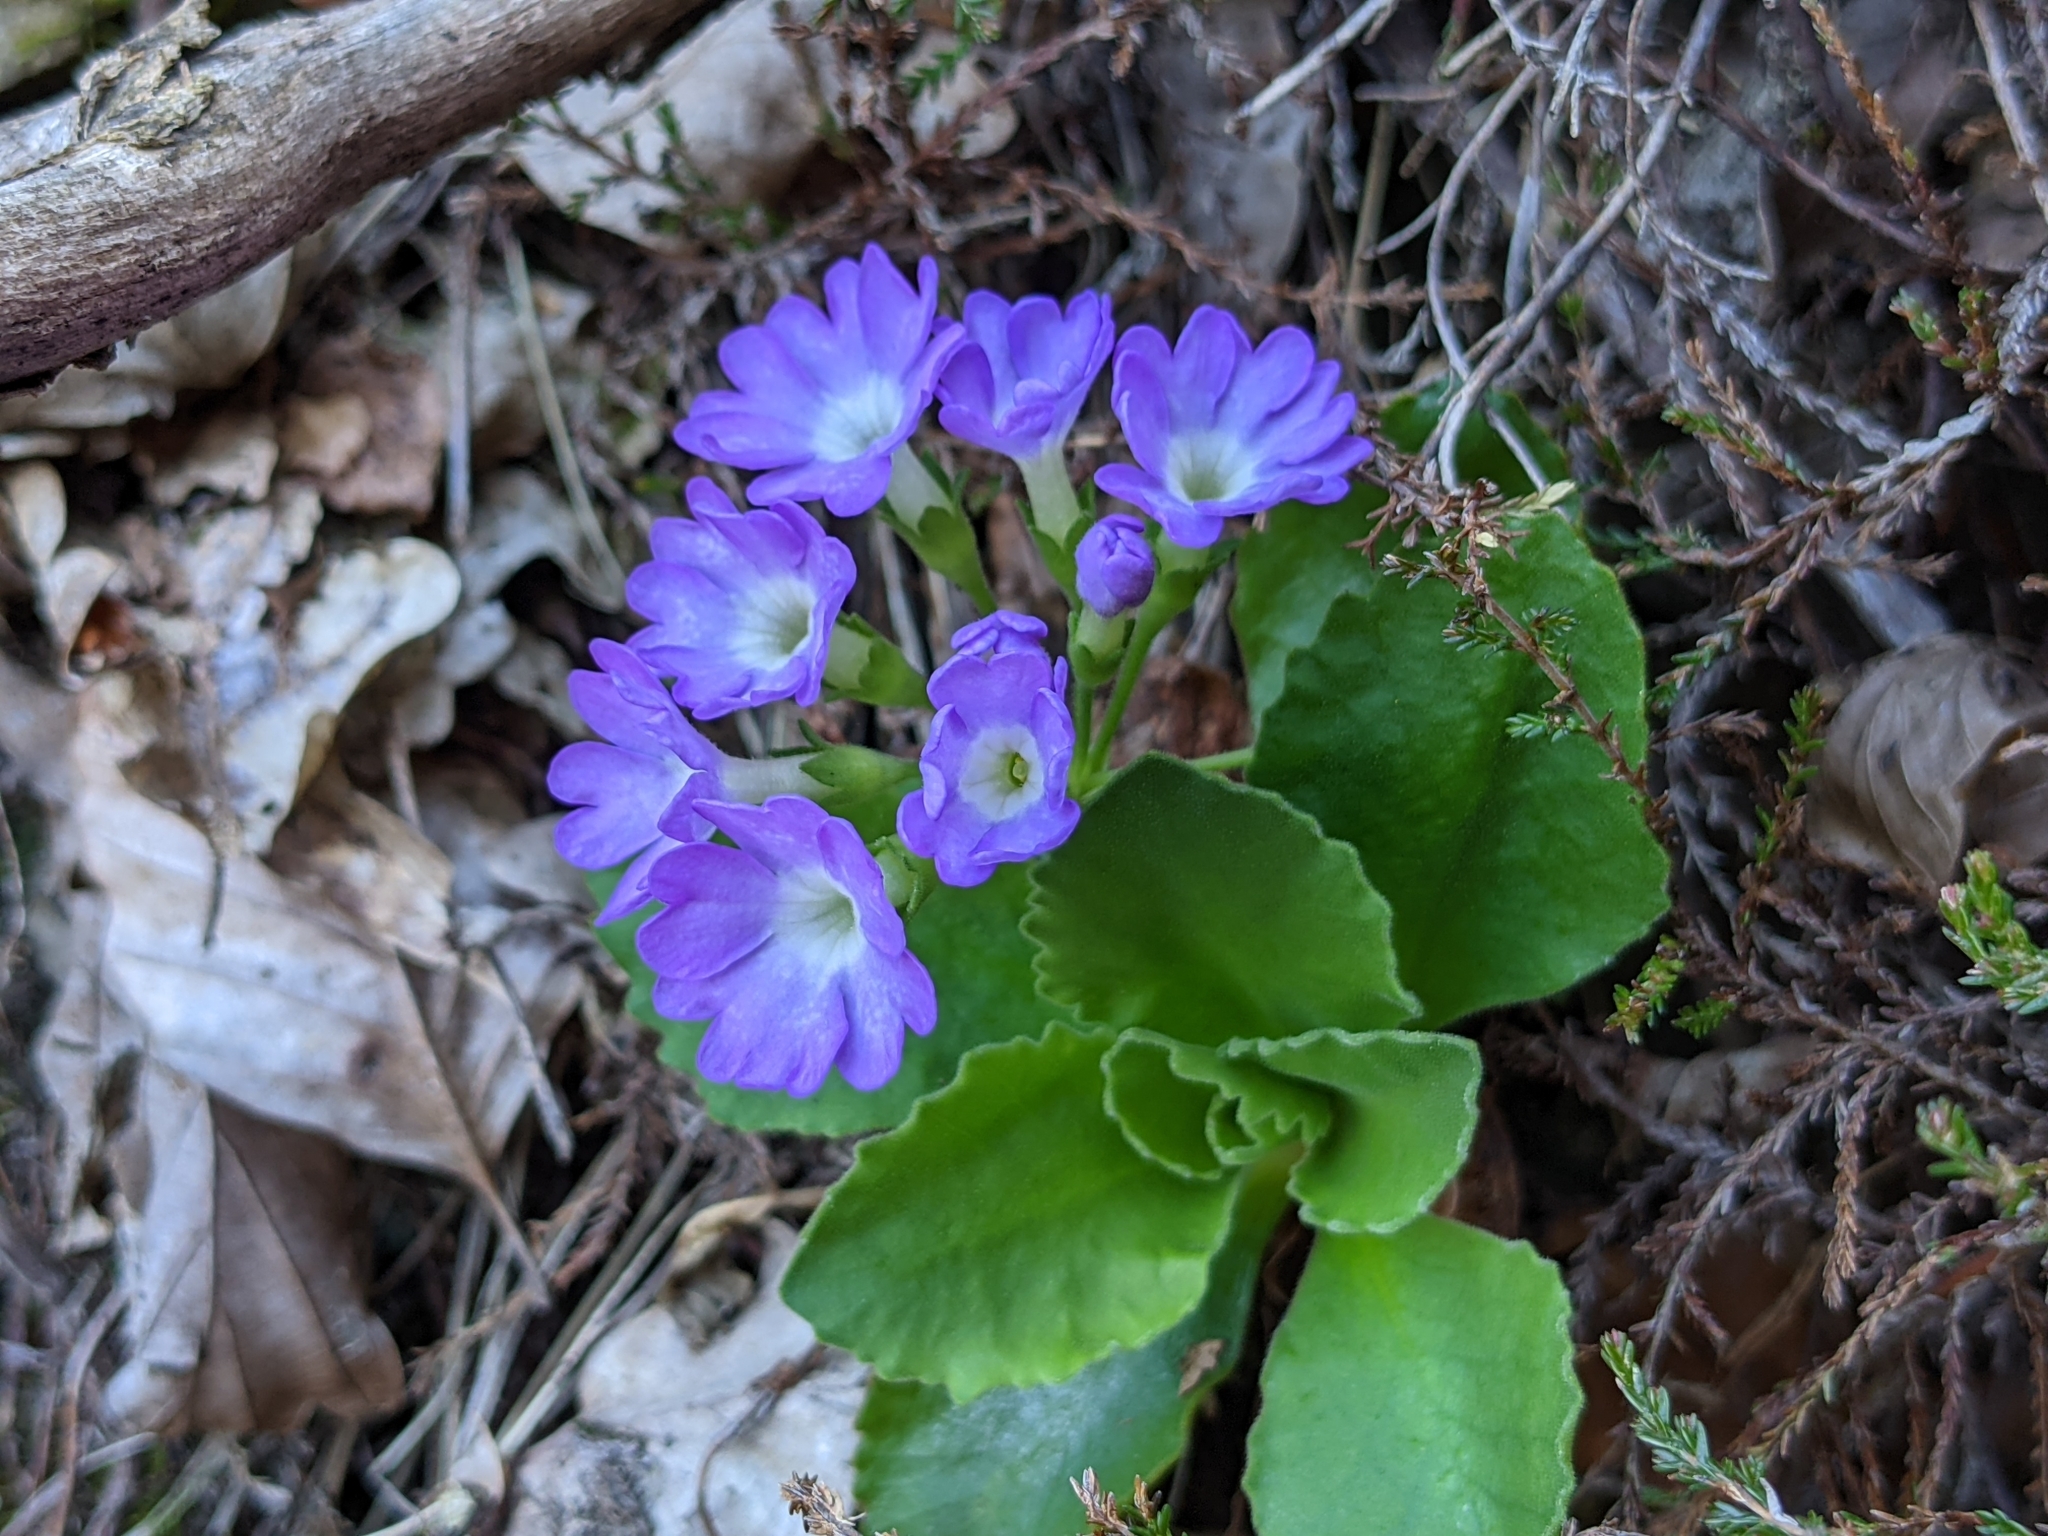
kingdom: Plantae
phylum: Tracheophyta
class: Magnoliopsida
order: Ericales
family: Primulaceae
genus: Primula
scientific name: Primula hirsuta
